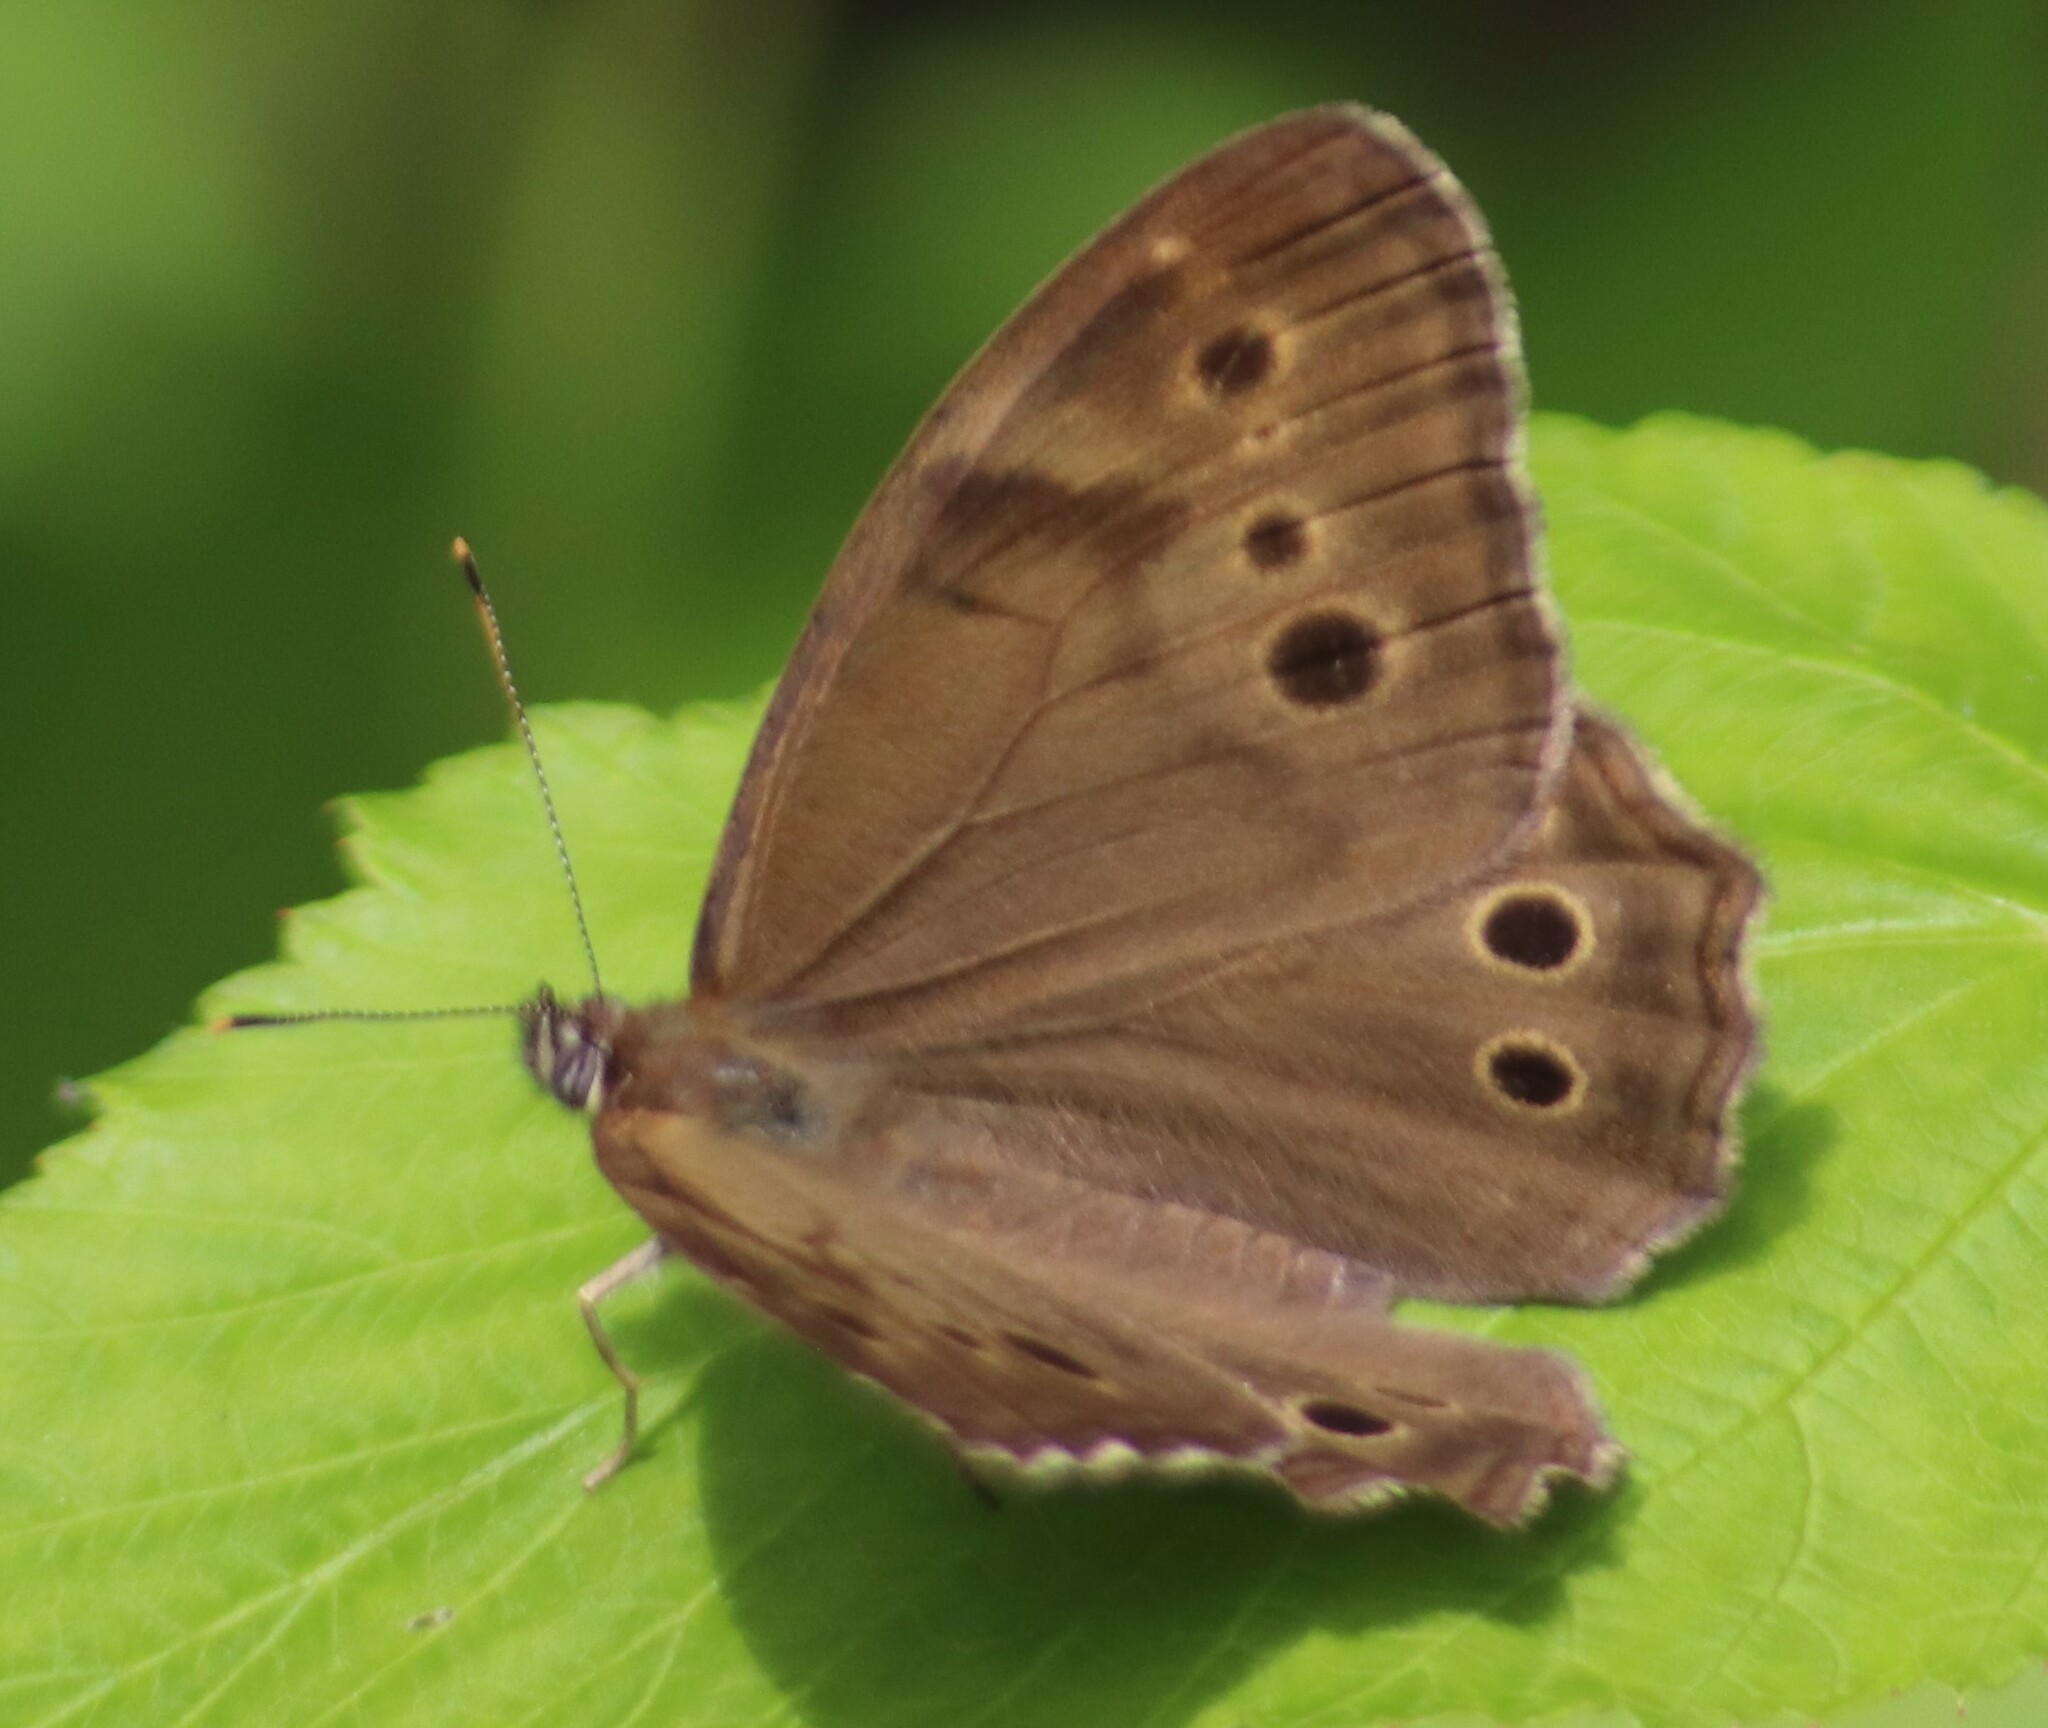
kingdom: Animalia
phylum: Arthropoda
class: Insecta
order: Lepidoptera
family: Nymphalidae
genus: Lethe
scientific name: Lethe anthedon
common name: Northern pearly-eye
